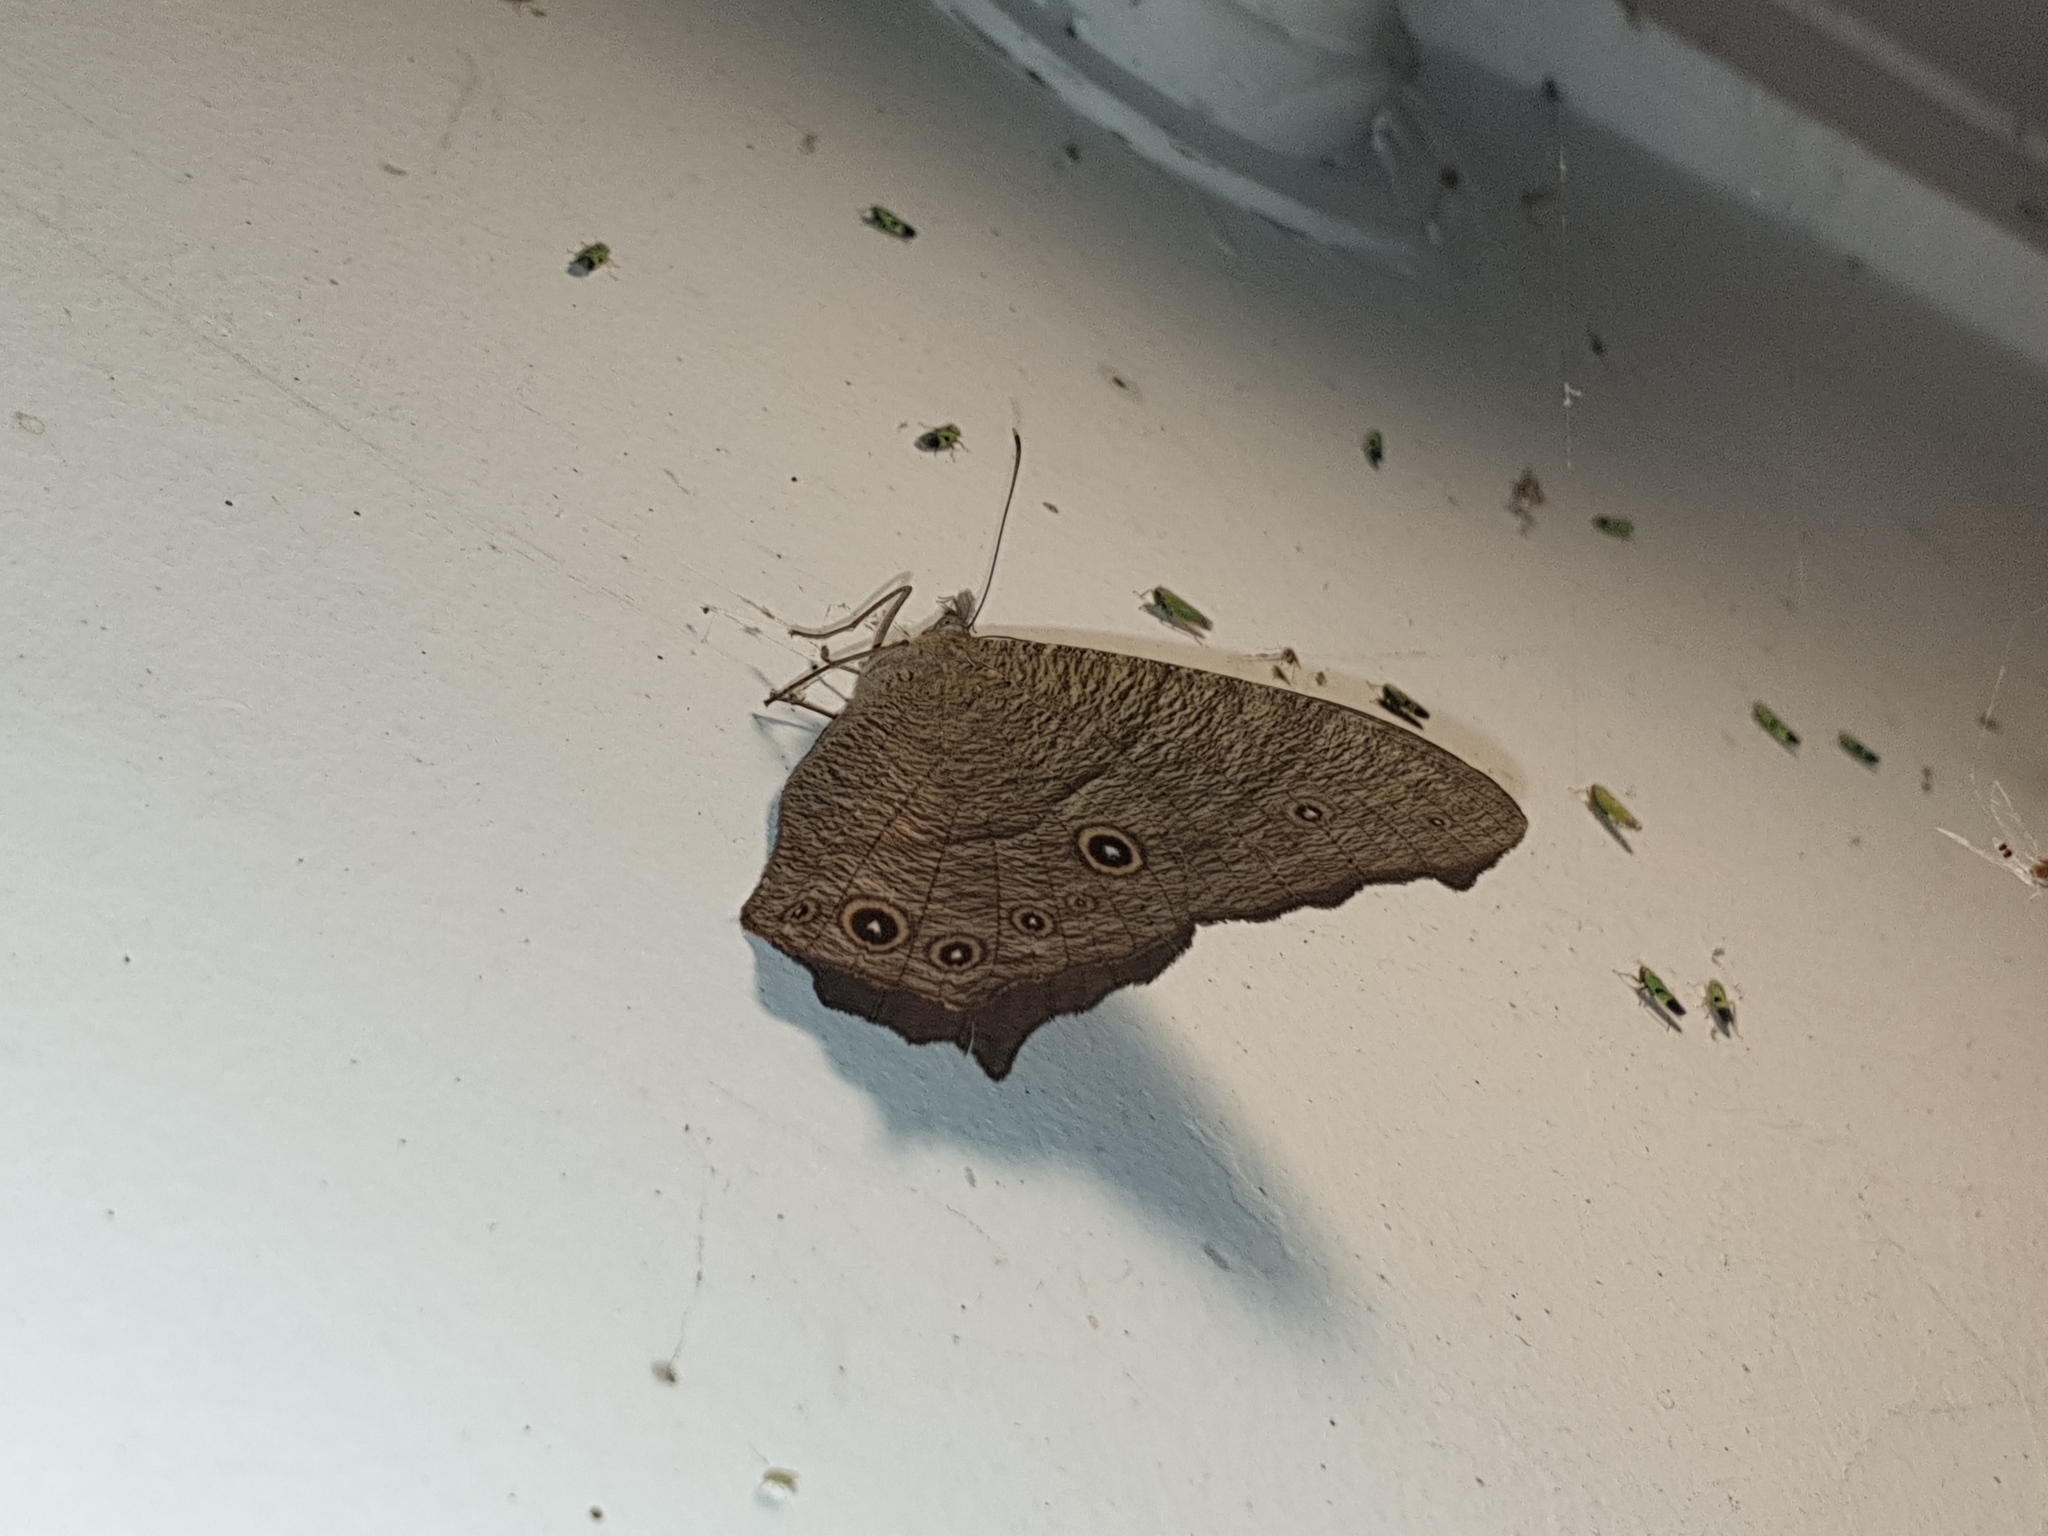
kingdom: Animalia
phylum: Arthropoda
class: Insecta
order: Lepidoptera
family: Nymphalidae
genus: Melanitis
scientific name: Melanitis leda
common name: Twilight brown
